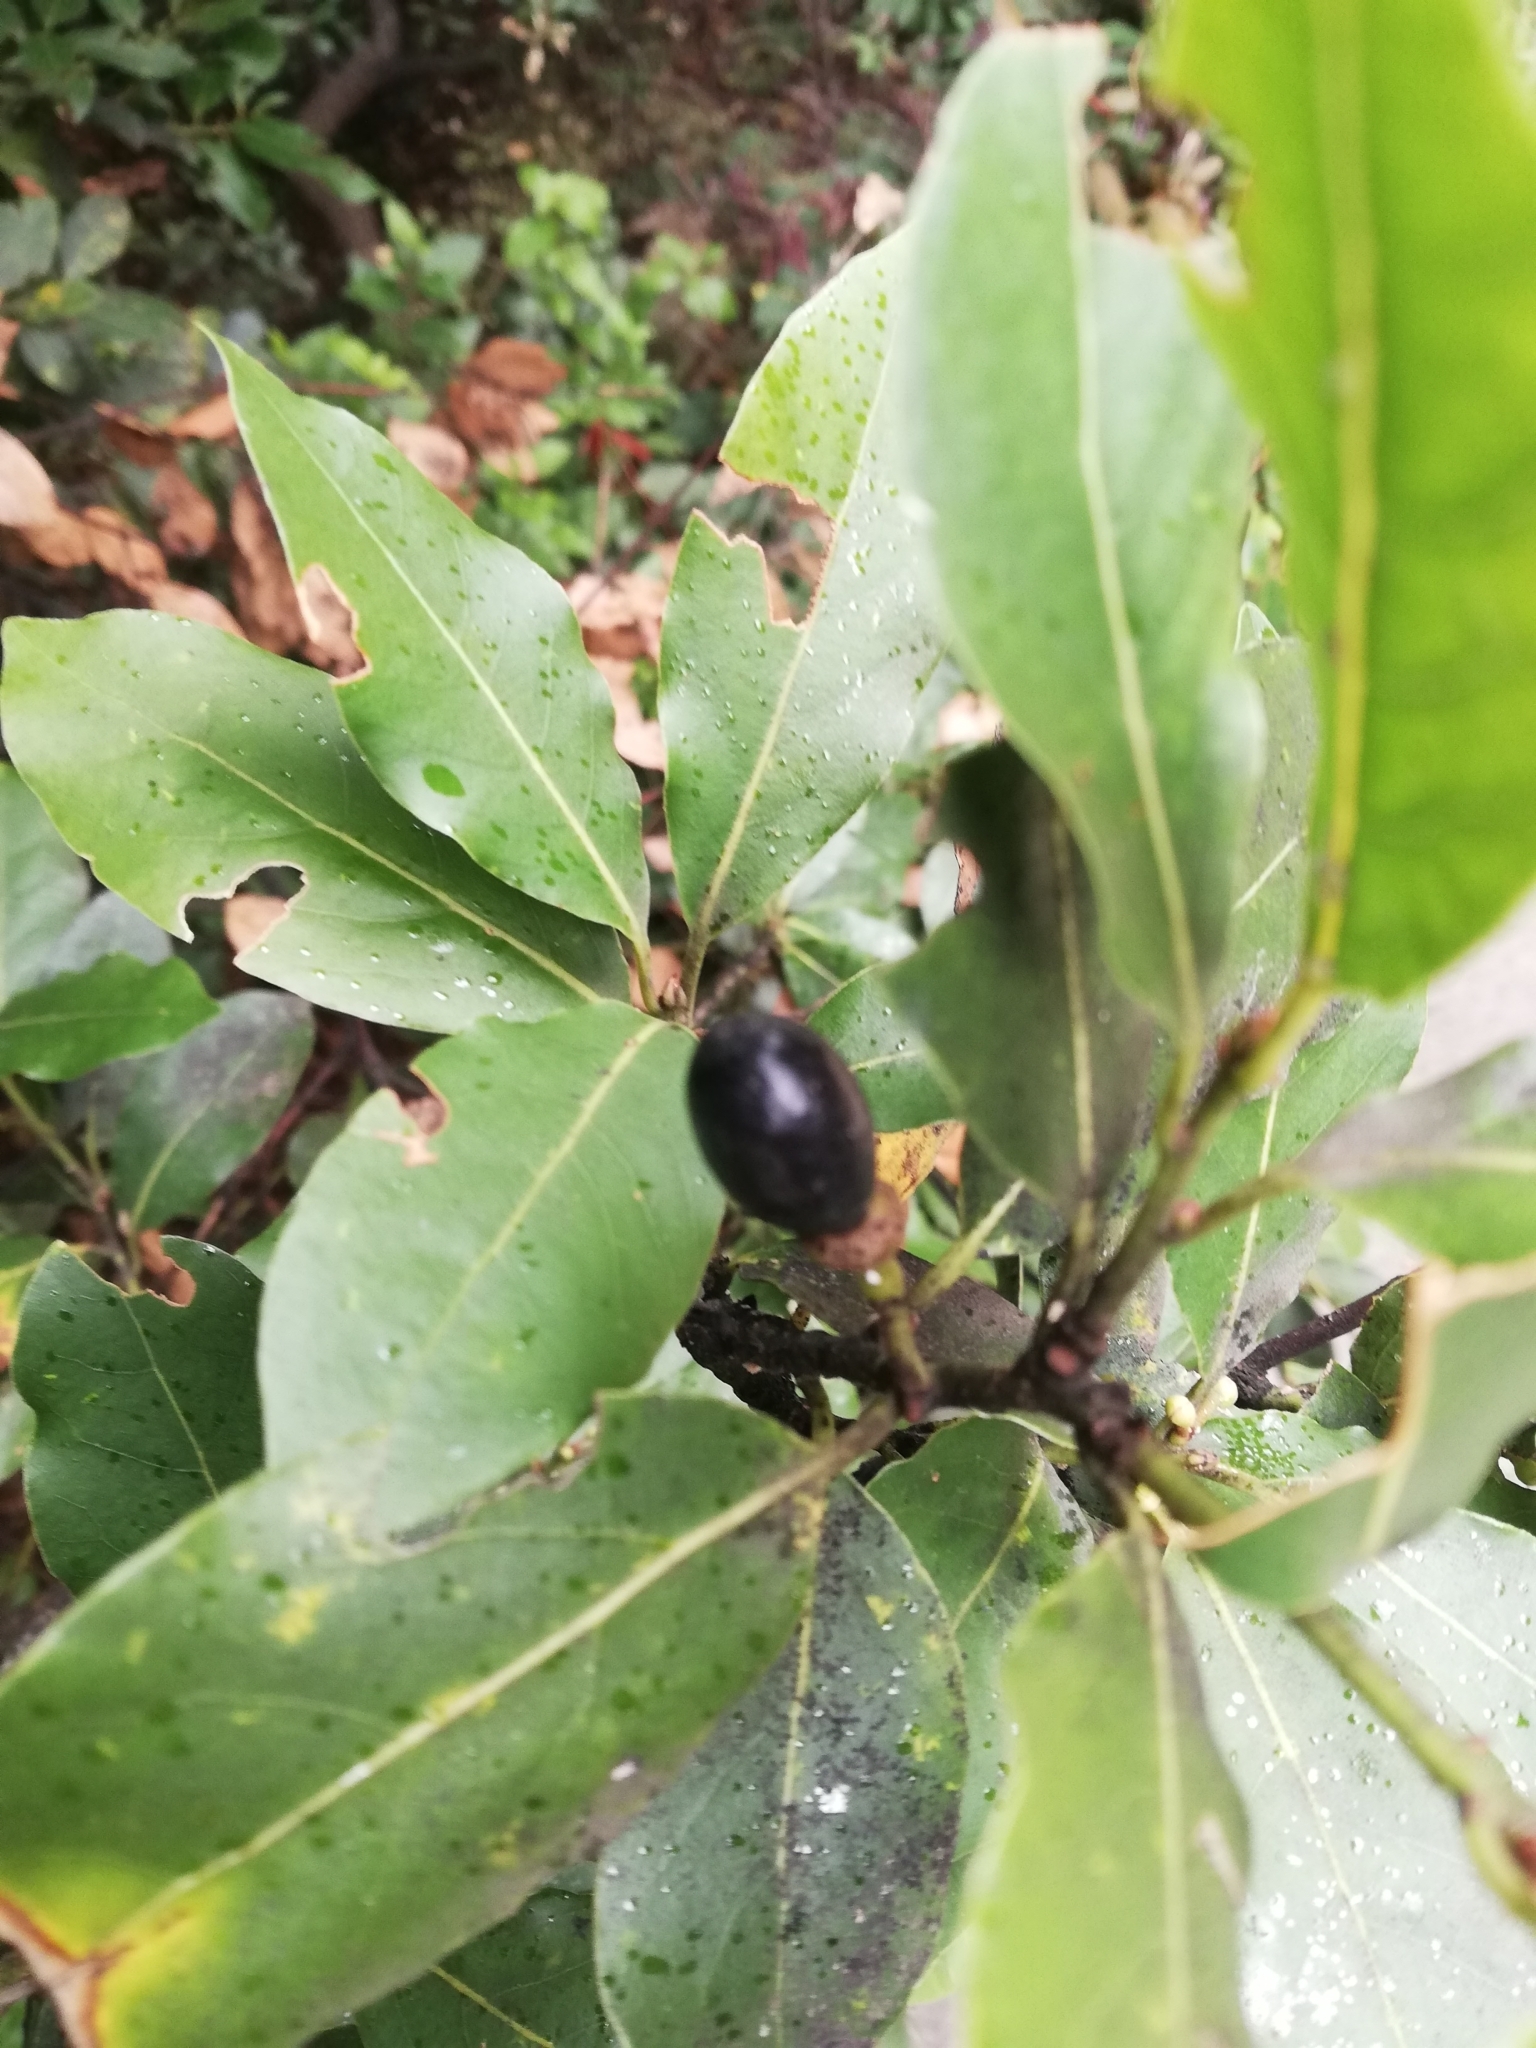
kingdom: Plantae
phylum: Tracheophyta
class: Magnoliopsida
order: Laurales
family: Lauraceae
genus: Laurus
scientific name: Laurus nobilis
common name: Bay
